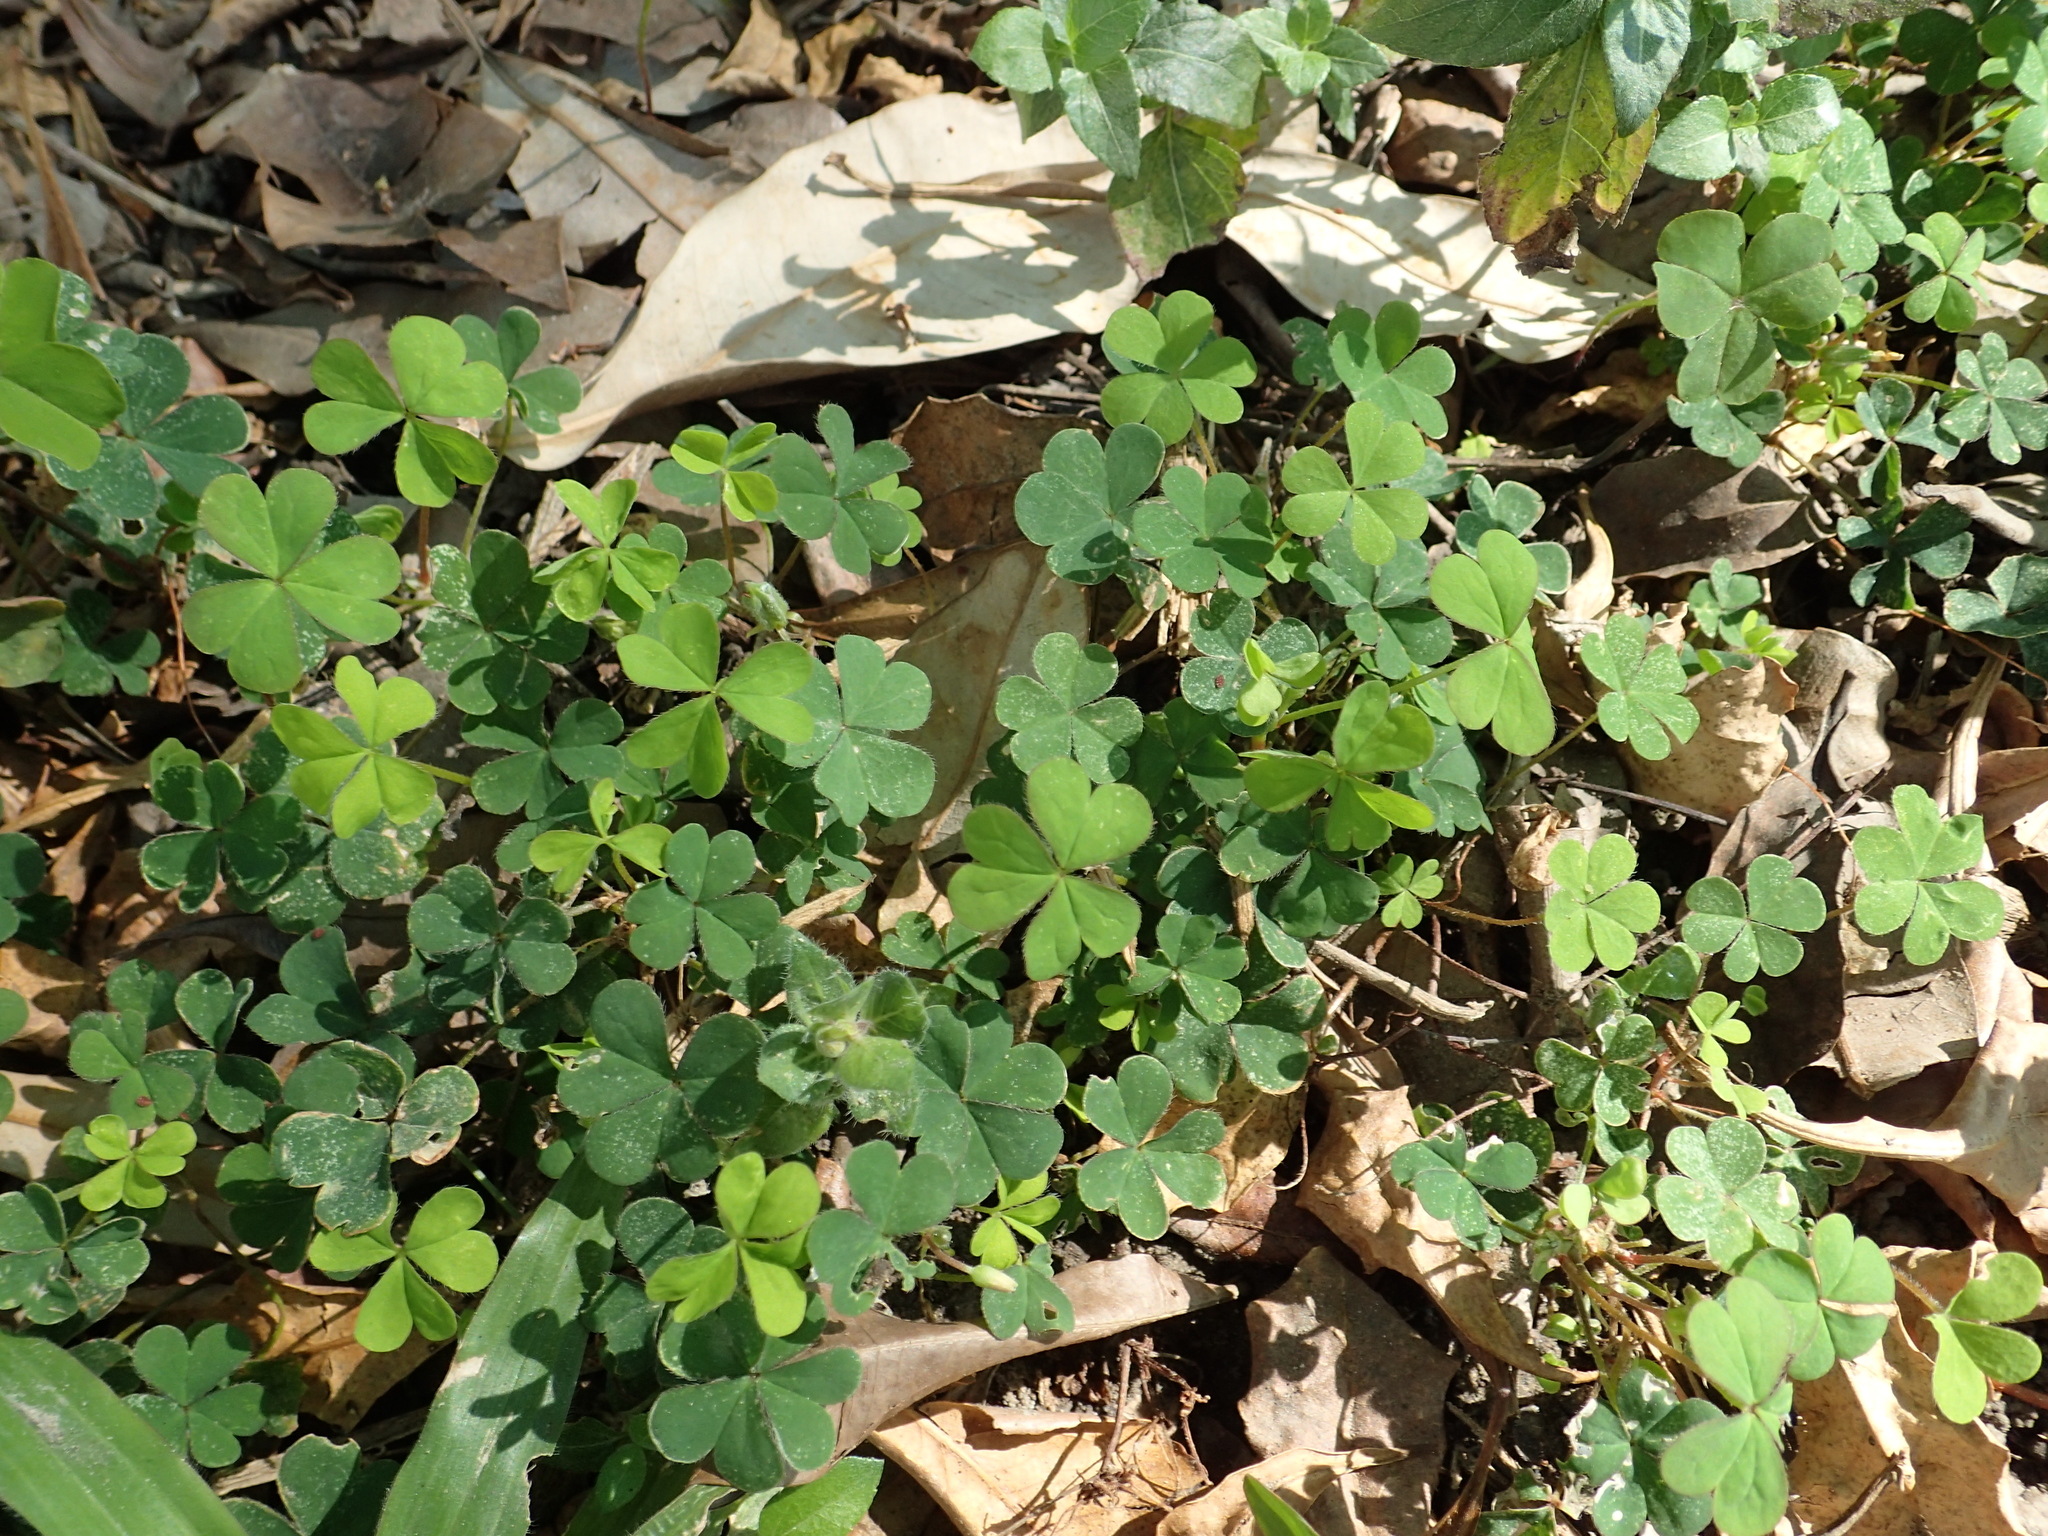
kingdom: Plantae
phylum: Tracheophyta
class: Magnoliopsida
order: Oxalidales
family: Oxalidaceae
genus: Oxalis
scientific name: Oxalis corniculata
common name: Procumbent yellow-sorrel
